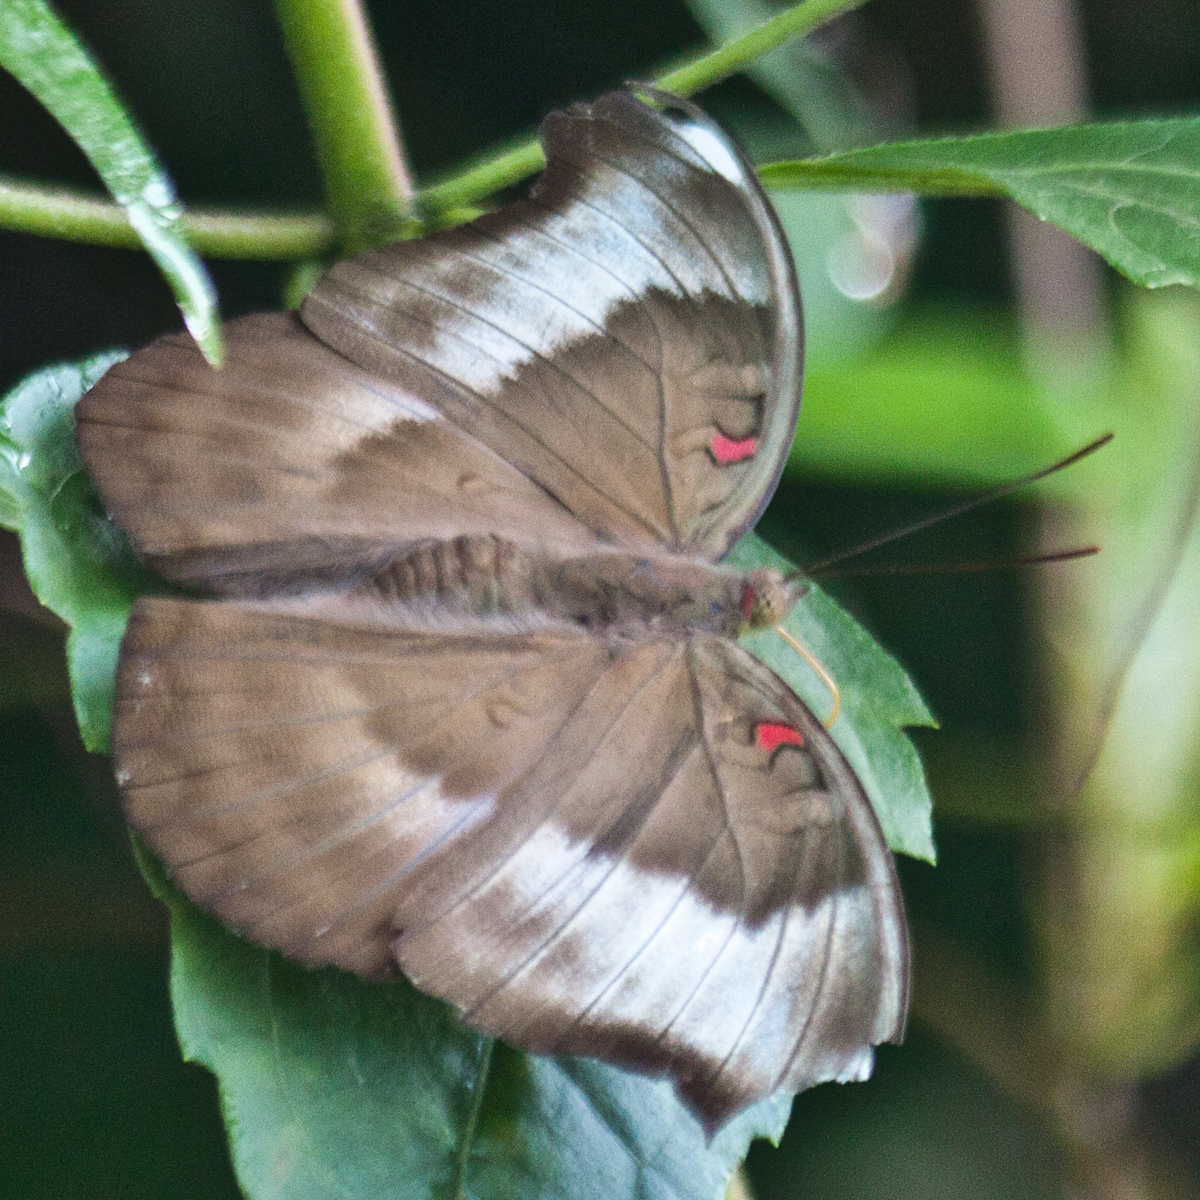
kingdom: Animalia
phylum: Arthropoda
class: Insecta
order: Lepidoptera
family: Nymphalidae
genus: Euthalia
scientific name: Euthalia Dophla evelina
